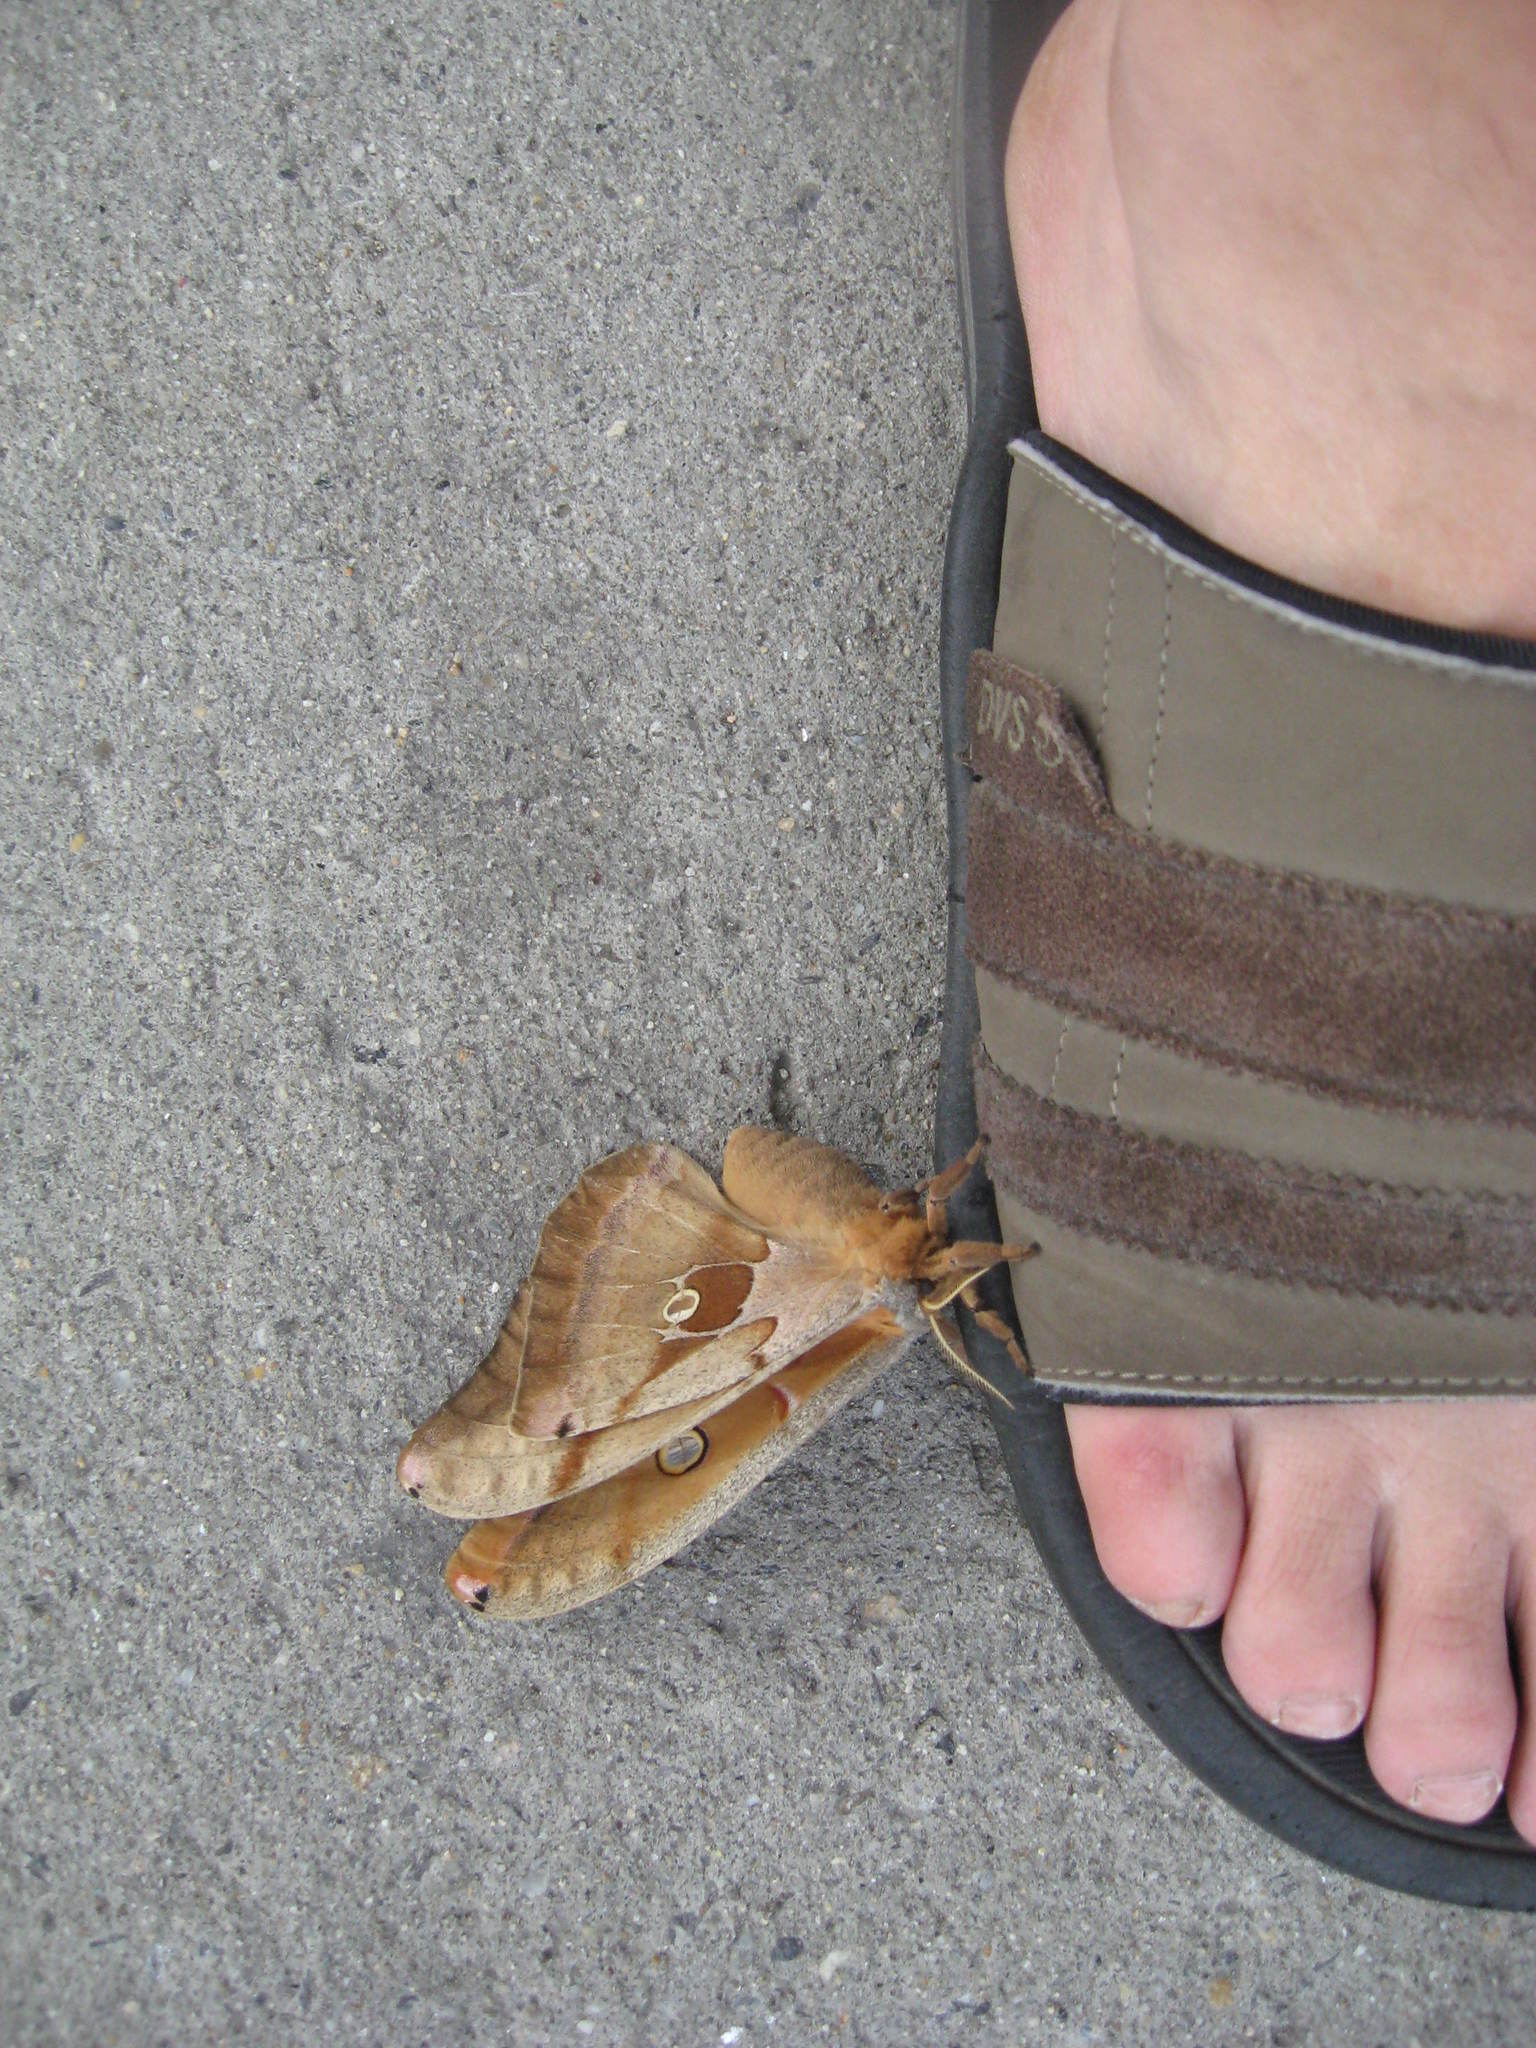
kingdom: Animalia
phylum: Arthropoda
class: Insecta
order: Lepidoptera
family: Saturniidae
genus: Antheraea
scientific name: Antheraea polyphemus
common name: Polyphemus moth
